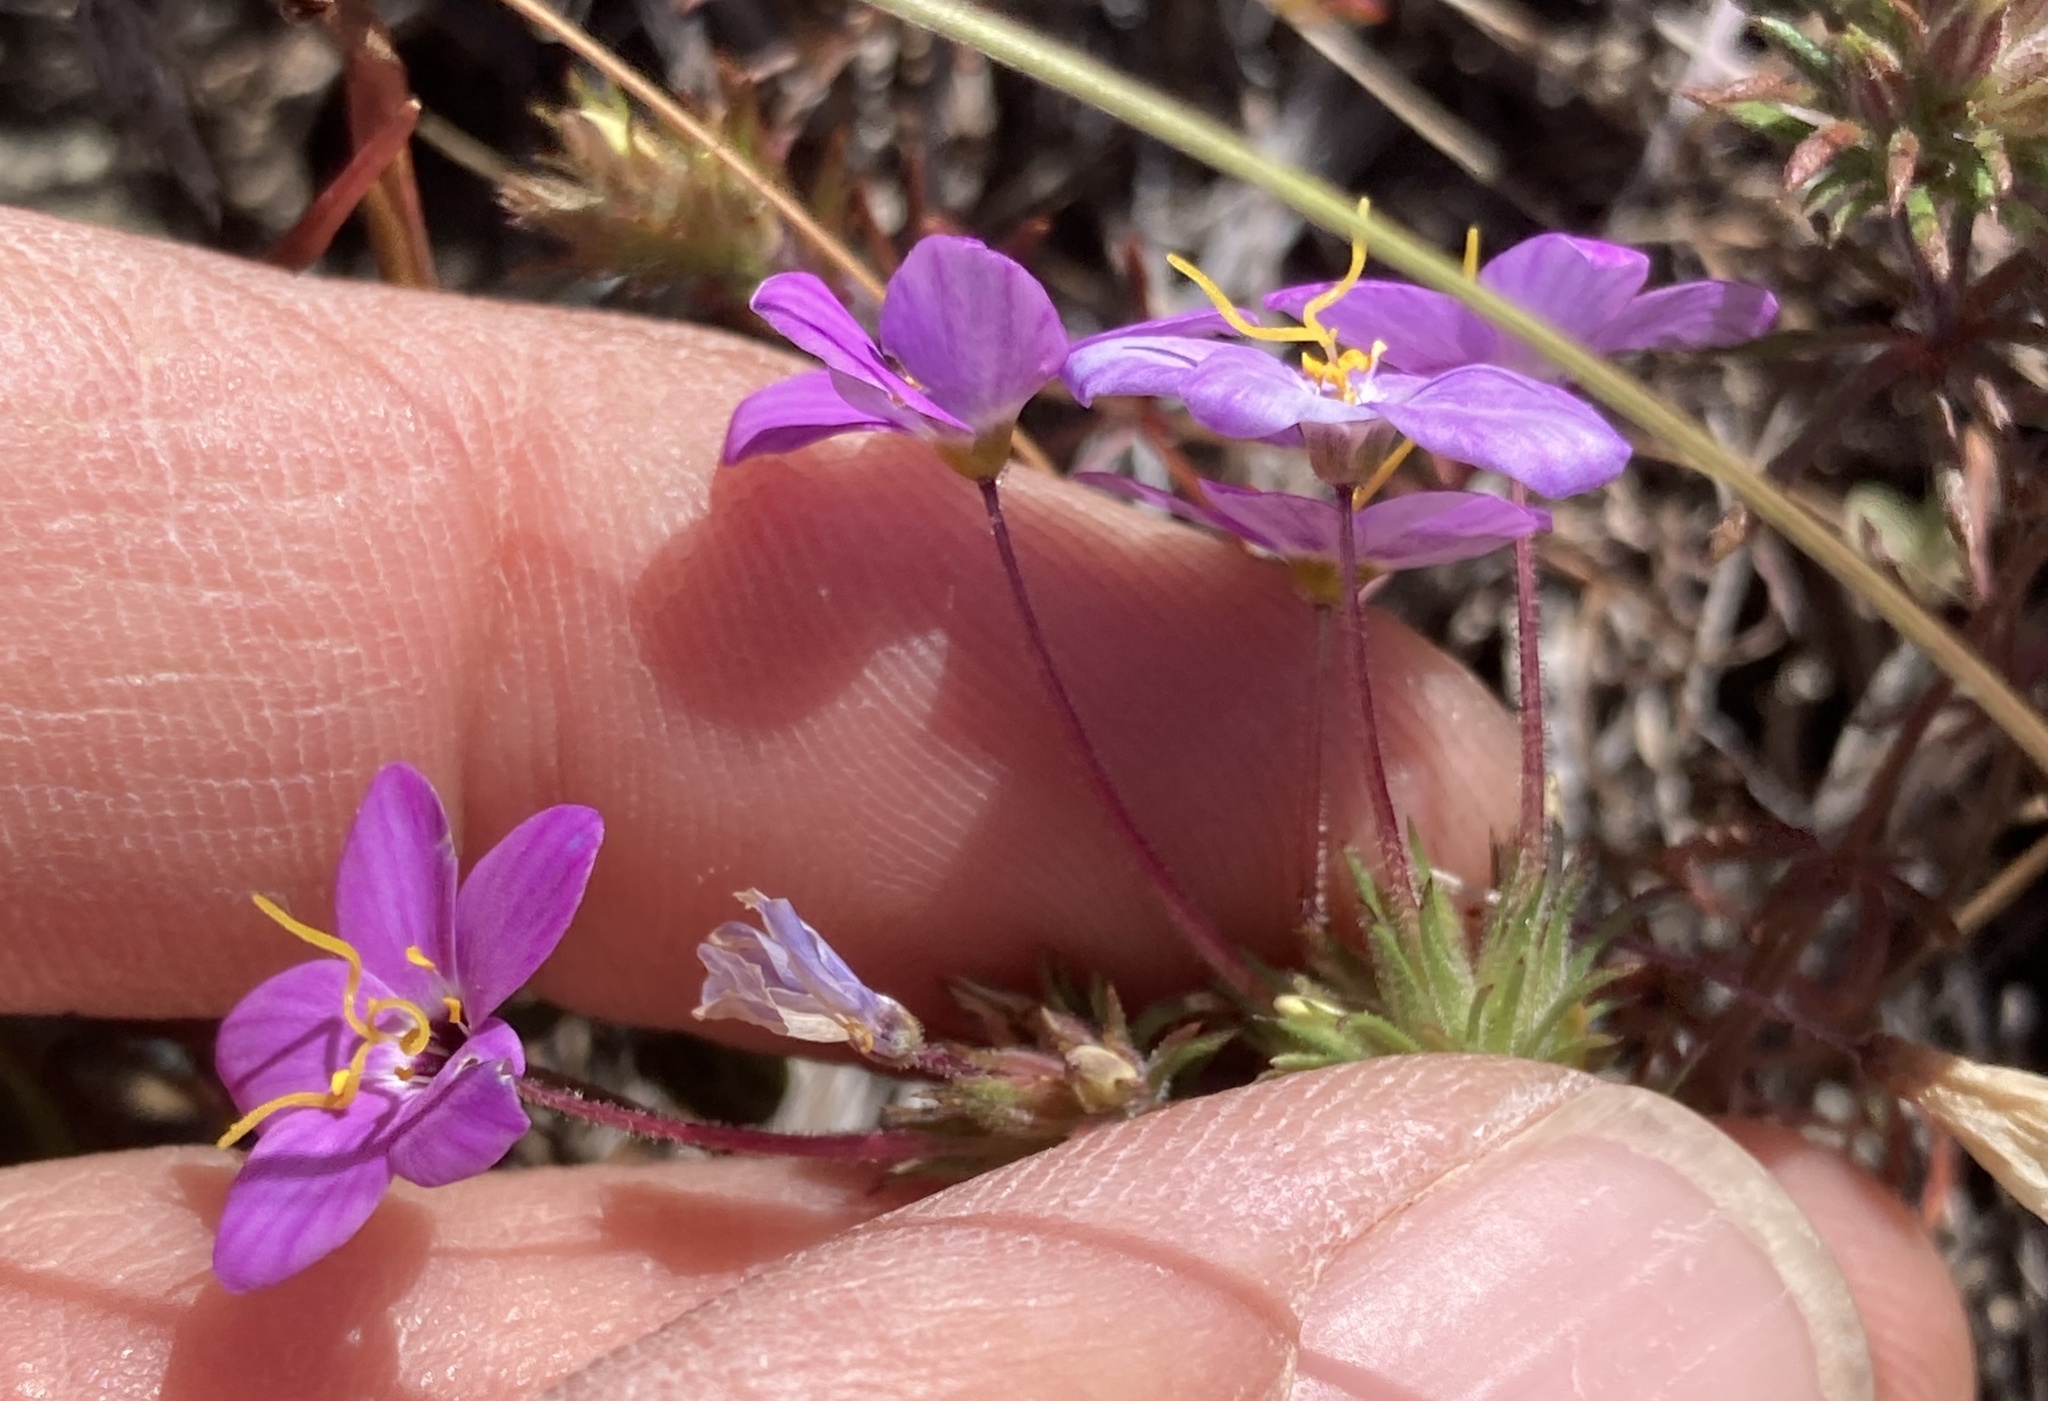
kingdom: Plantae
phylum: Tracheophyta
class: Magnoliopsida
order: Ericales
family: Polemoniaceae
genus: Leptosiphon
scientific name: Leptosiphon parviflorus
